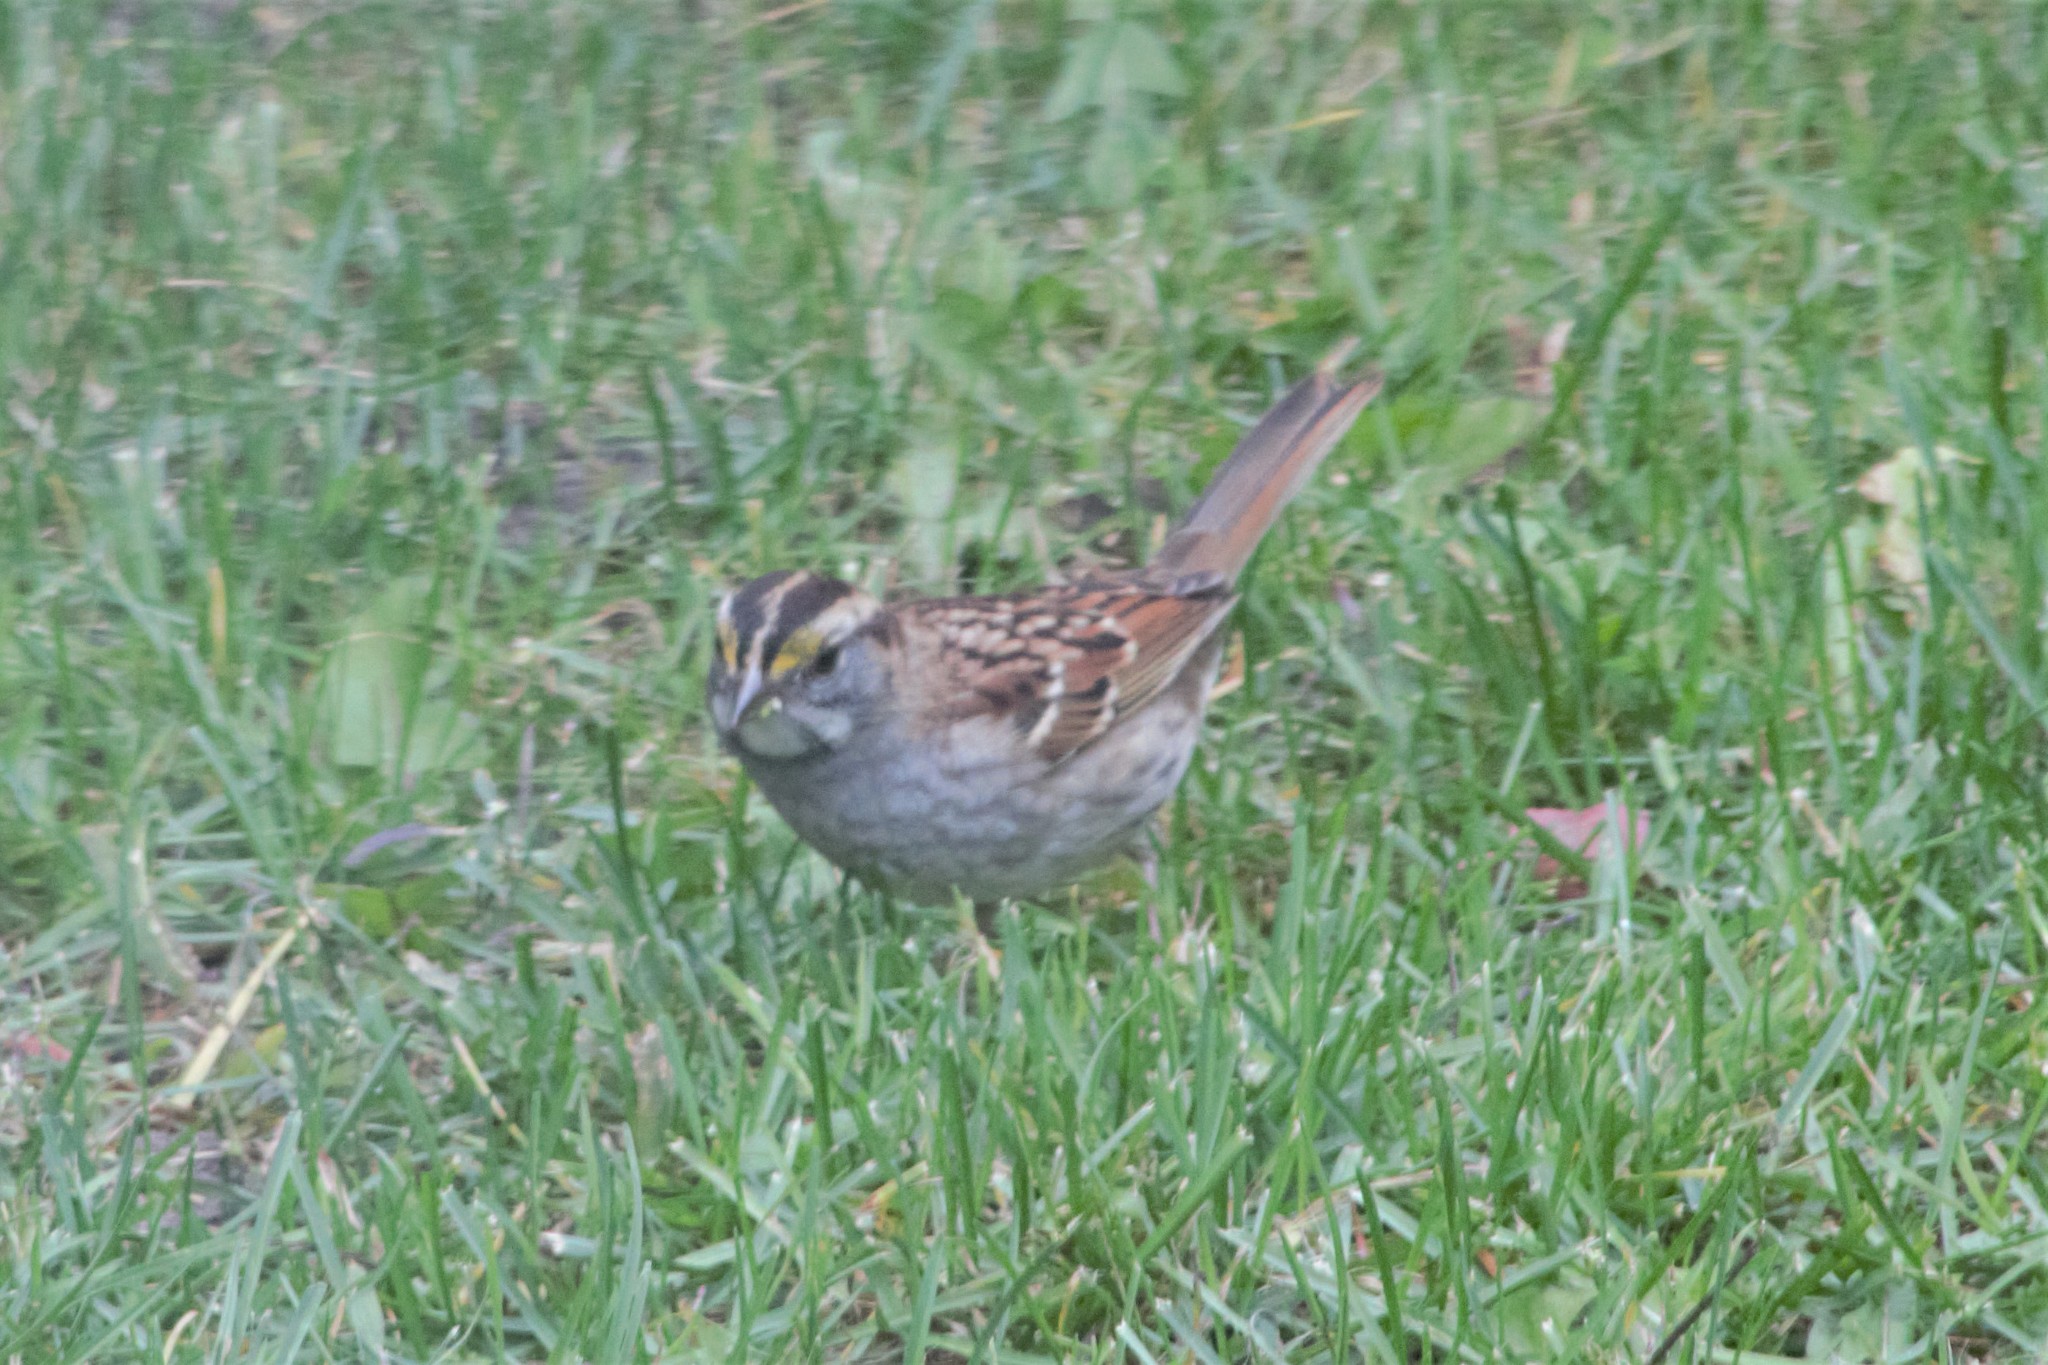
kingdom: Animalia
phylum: Chordata
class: Aves
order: Passeriformes
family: Passerellidae
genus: Zonotrichia
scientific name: Zonotrichia albicollis
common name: White-throated sparrow
